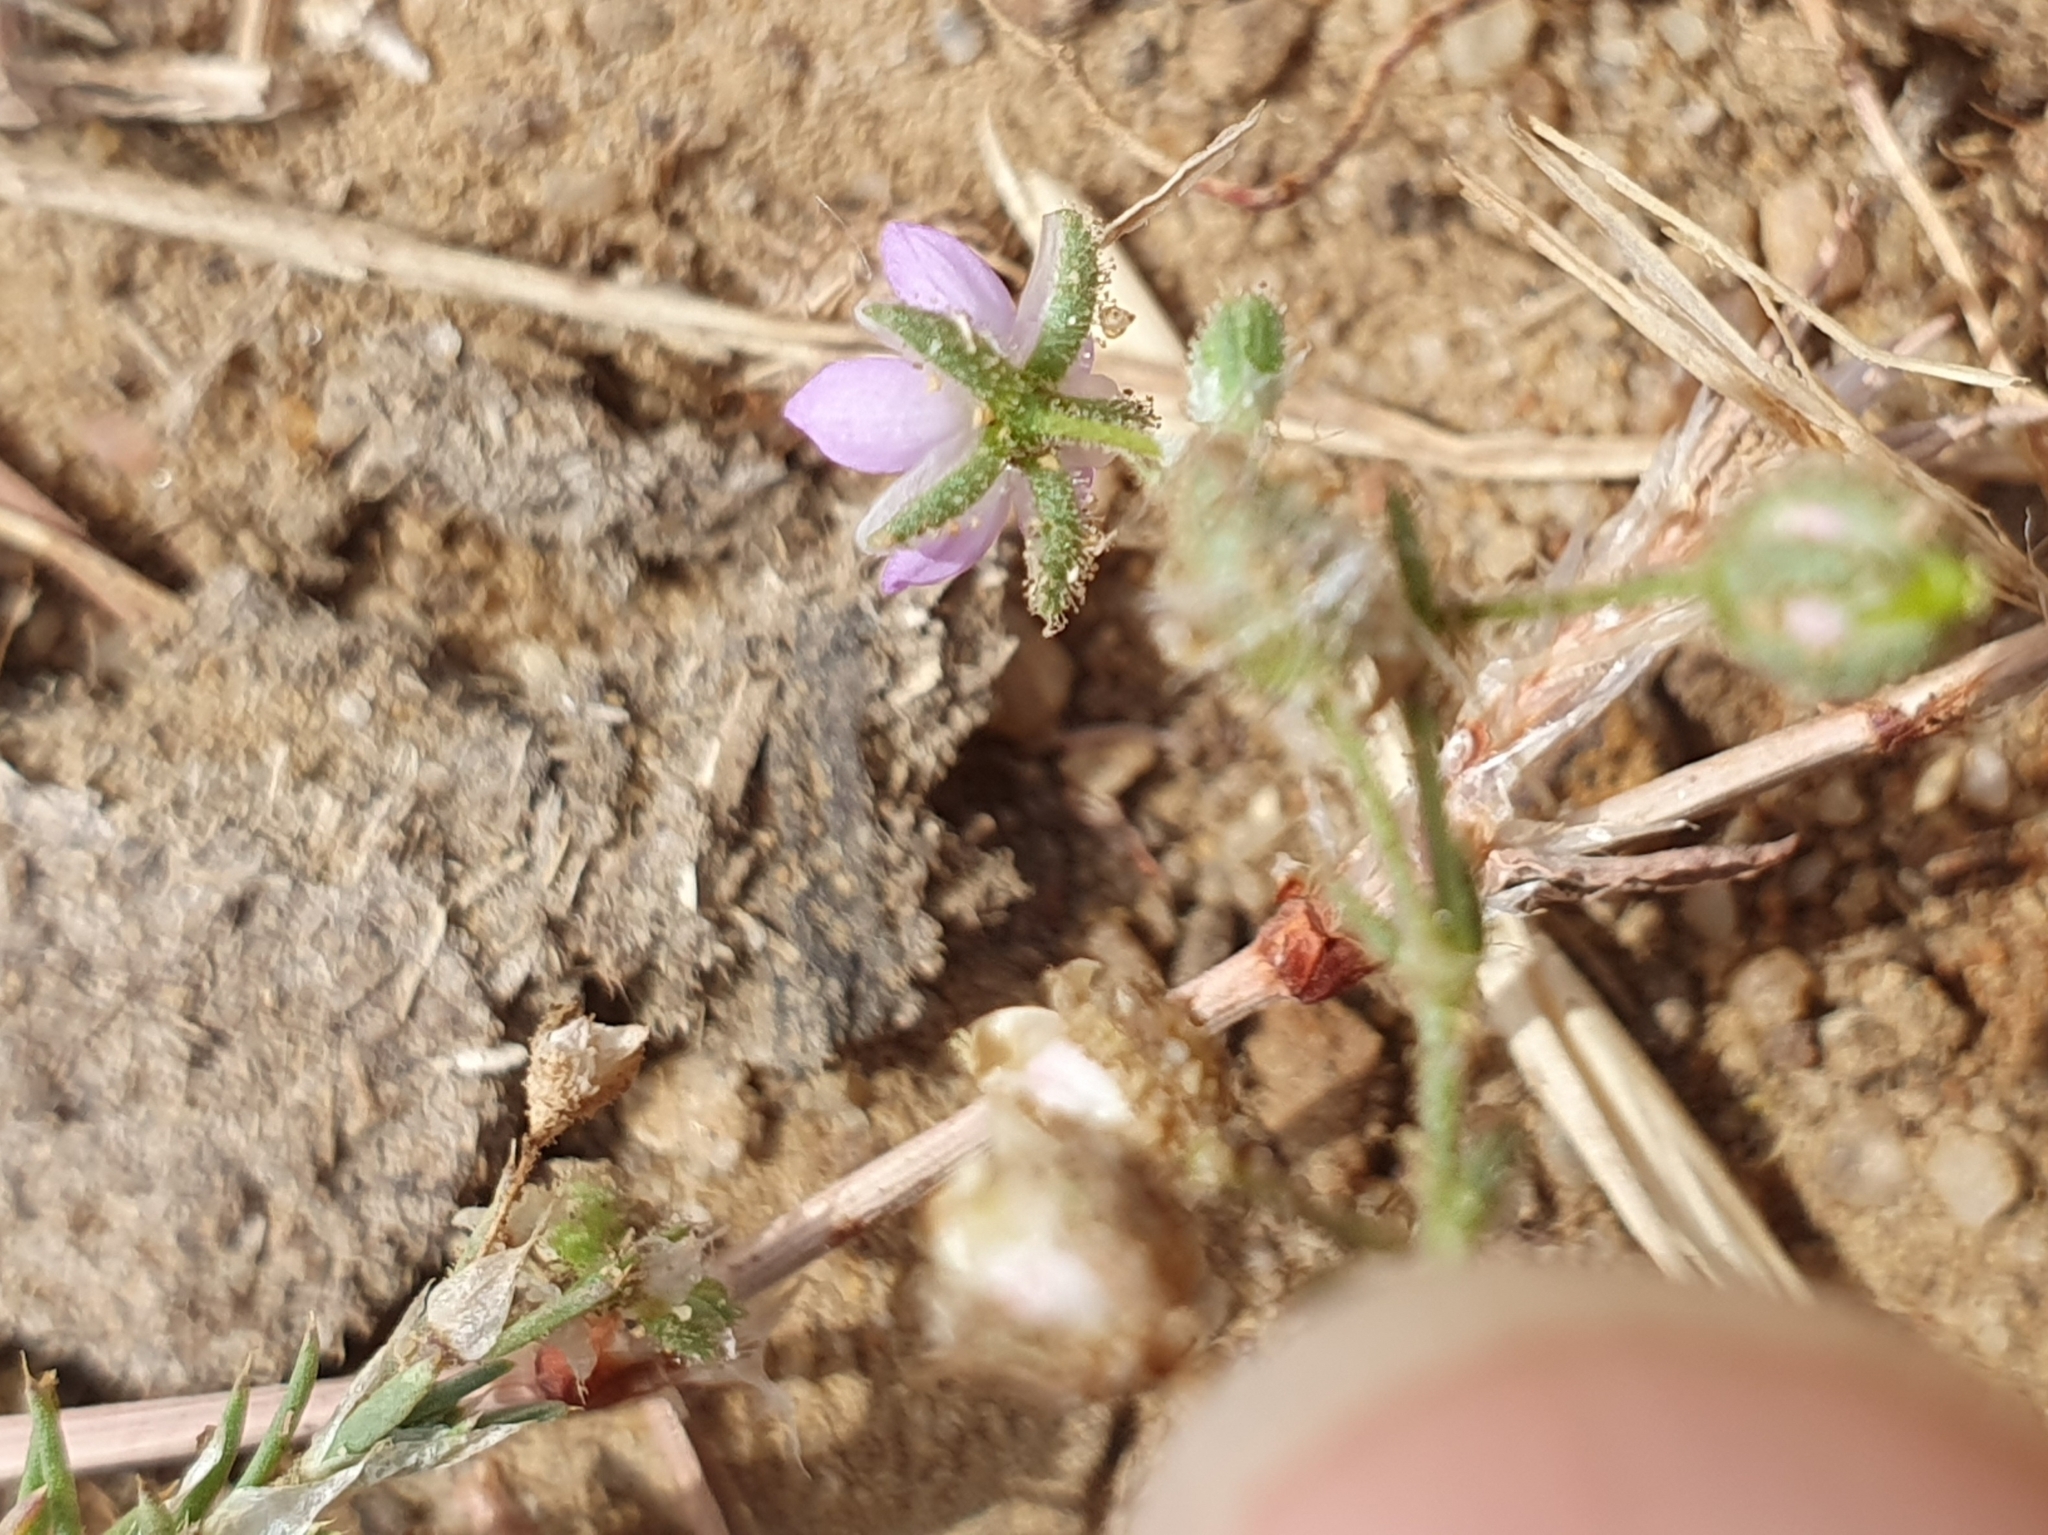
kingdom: Plantae
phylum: Tracheophyta
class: Magnoliopsida
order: Caryophyllales
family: Caryophyllaceae
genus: Spergularia
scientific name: Spergularia rubra
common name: Red sand-spurrey
